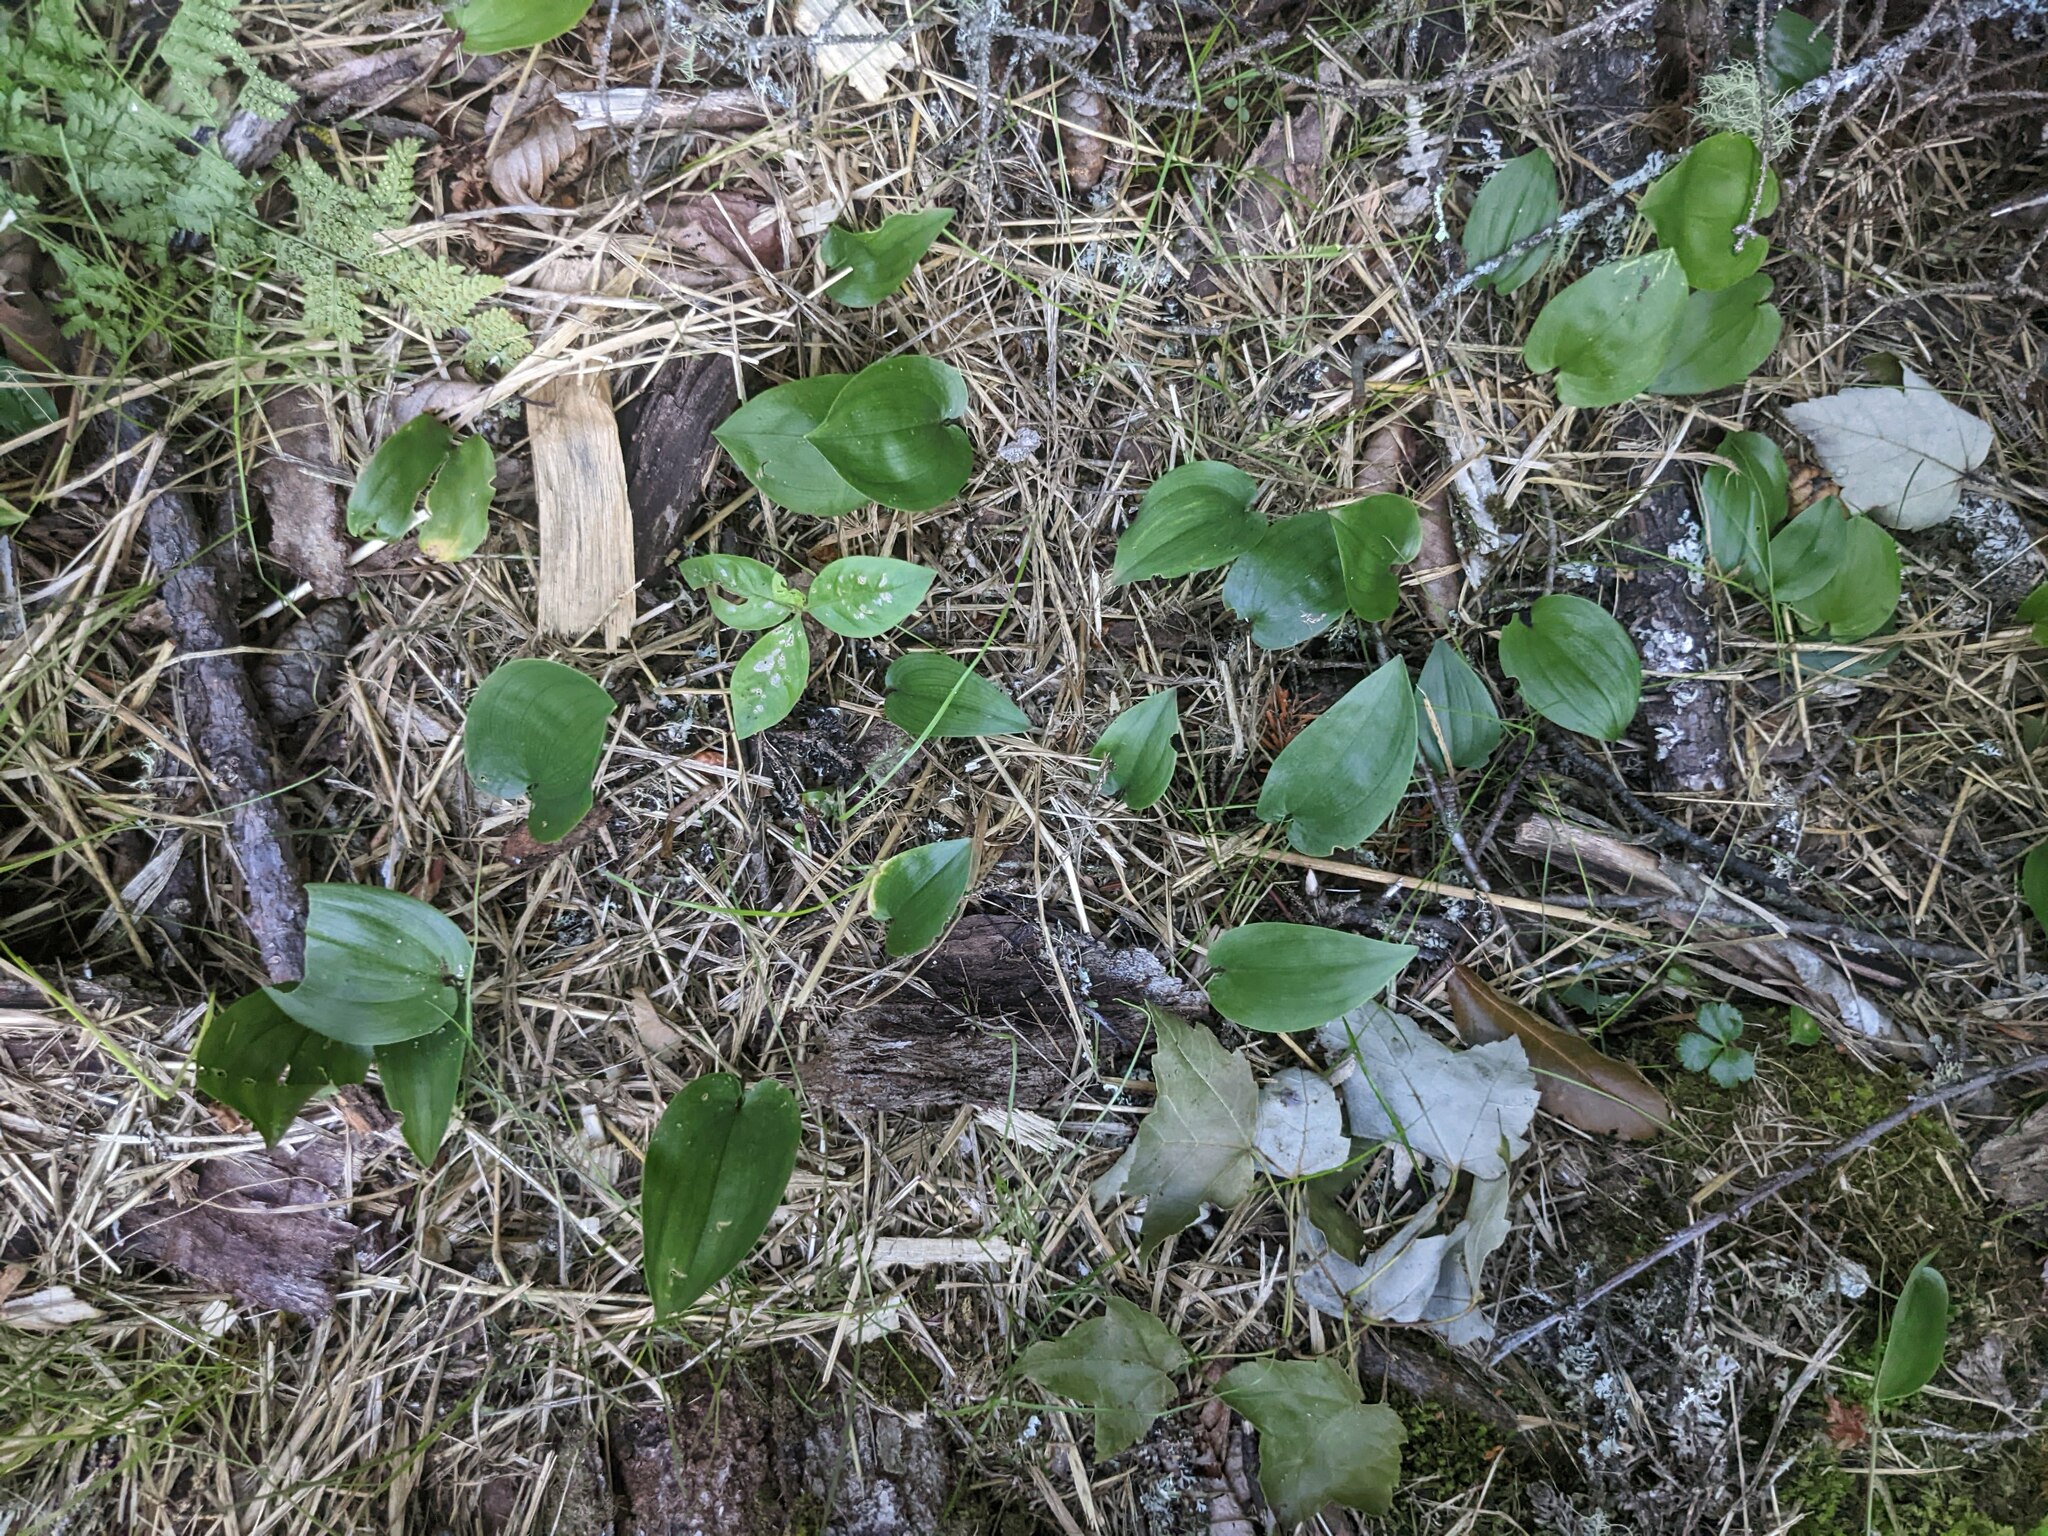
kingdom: Plantae
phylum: Tracheophyta
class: Liliopsida
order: Asparagales
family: Asparagaceae
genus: Maianthemum
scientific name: Maianthemum canadense
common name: False lily-of-the-valley
